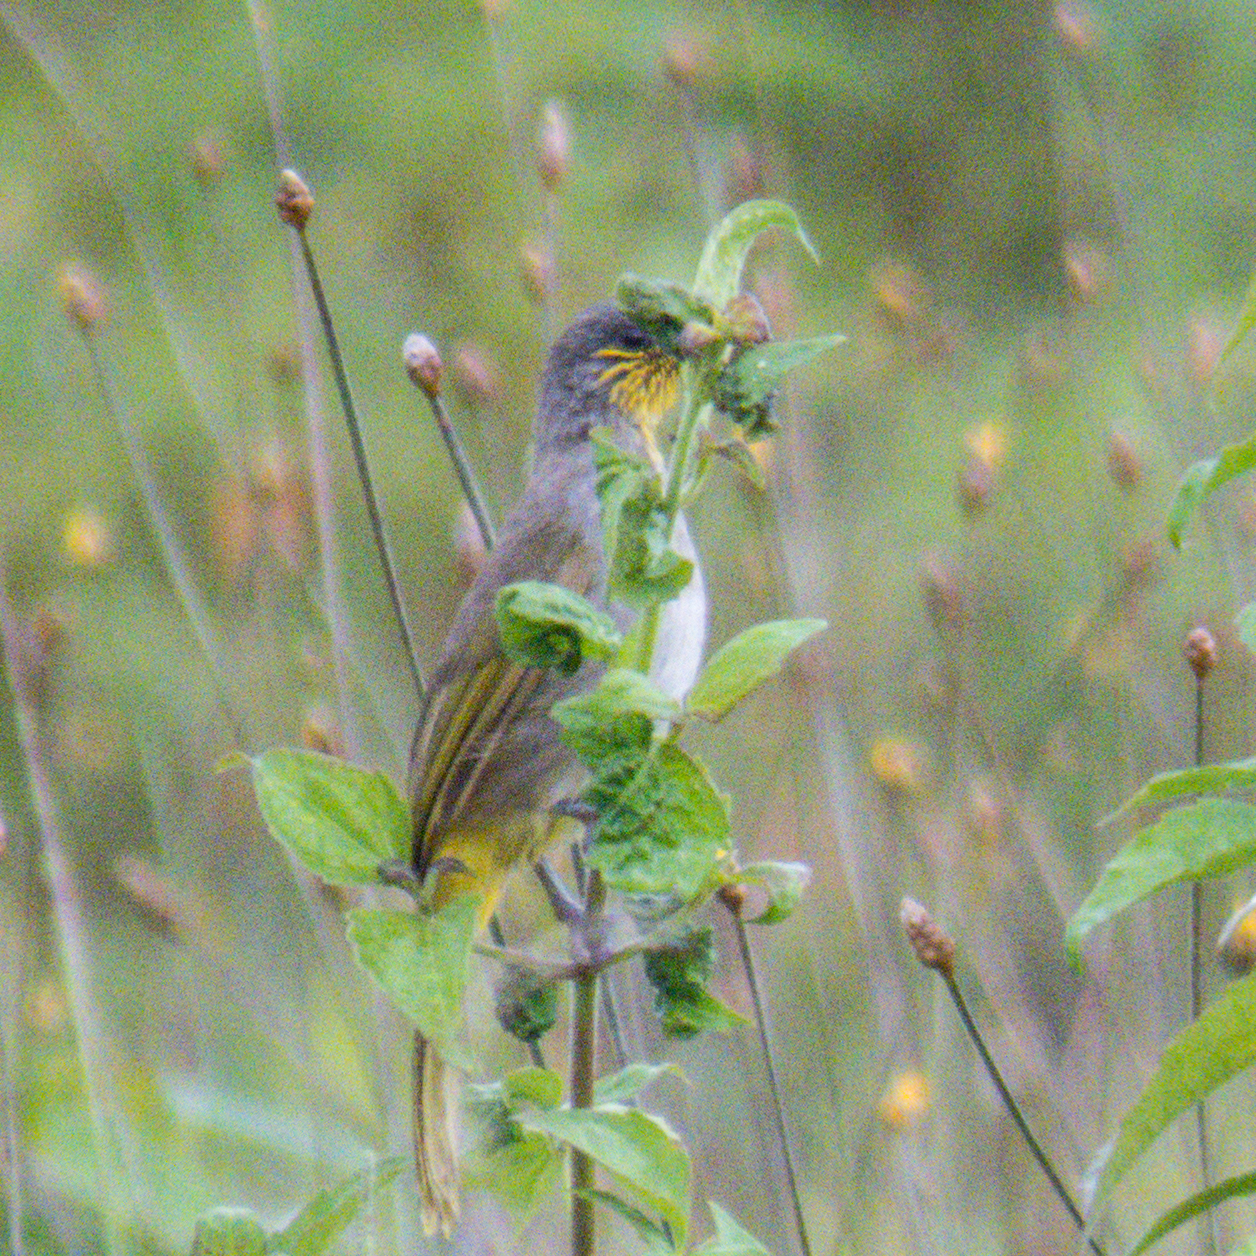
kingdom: Animalia
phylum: Chordata
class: Aves
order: Passeriformes
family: Pycnonotidae
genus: Pycnonotus
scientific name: Pycnonotus finlaysoni
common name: Stripe-throated bulbul
